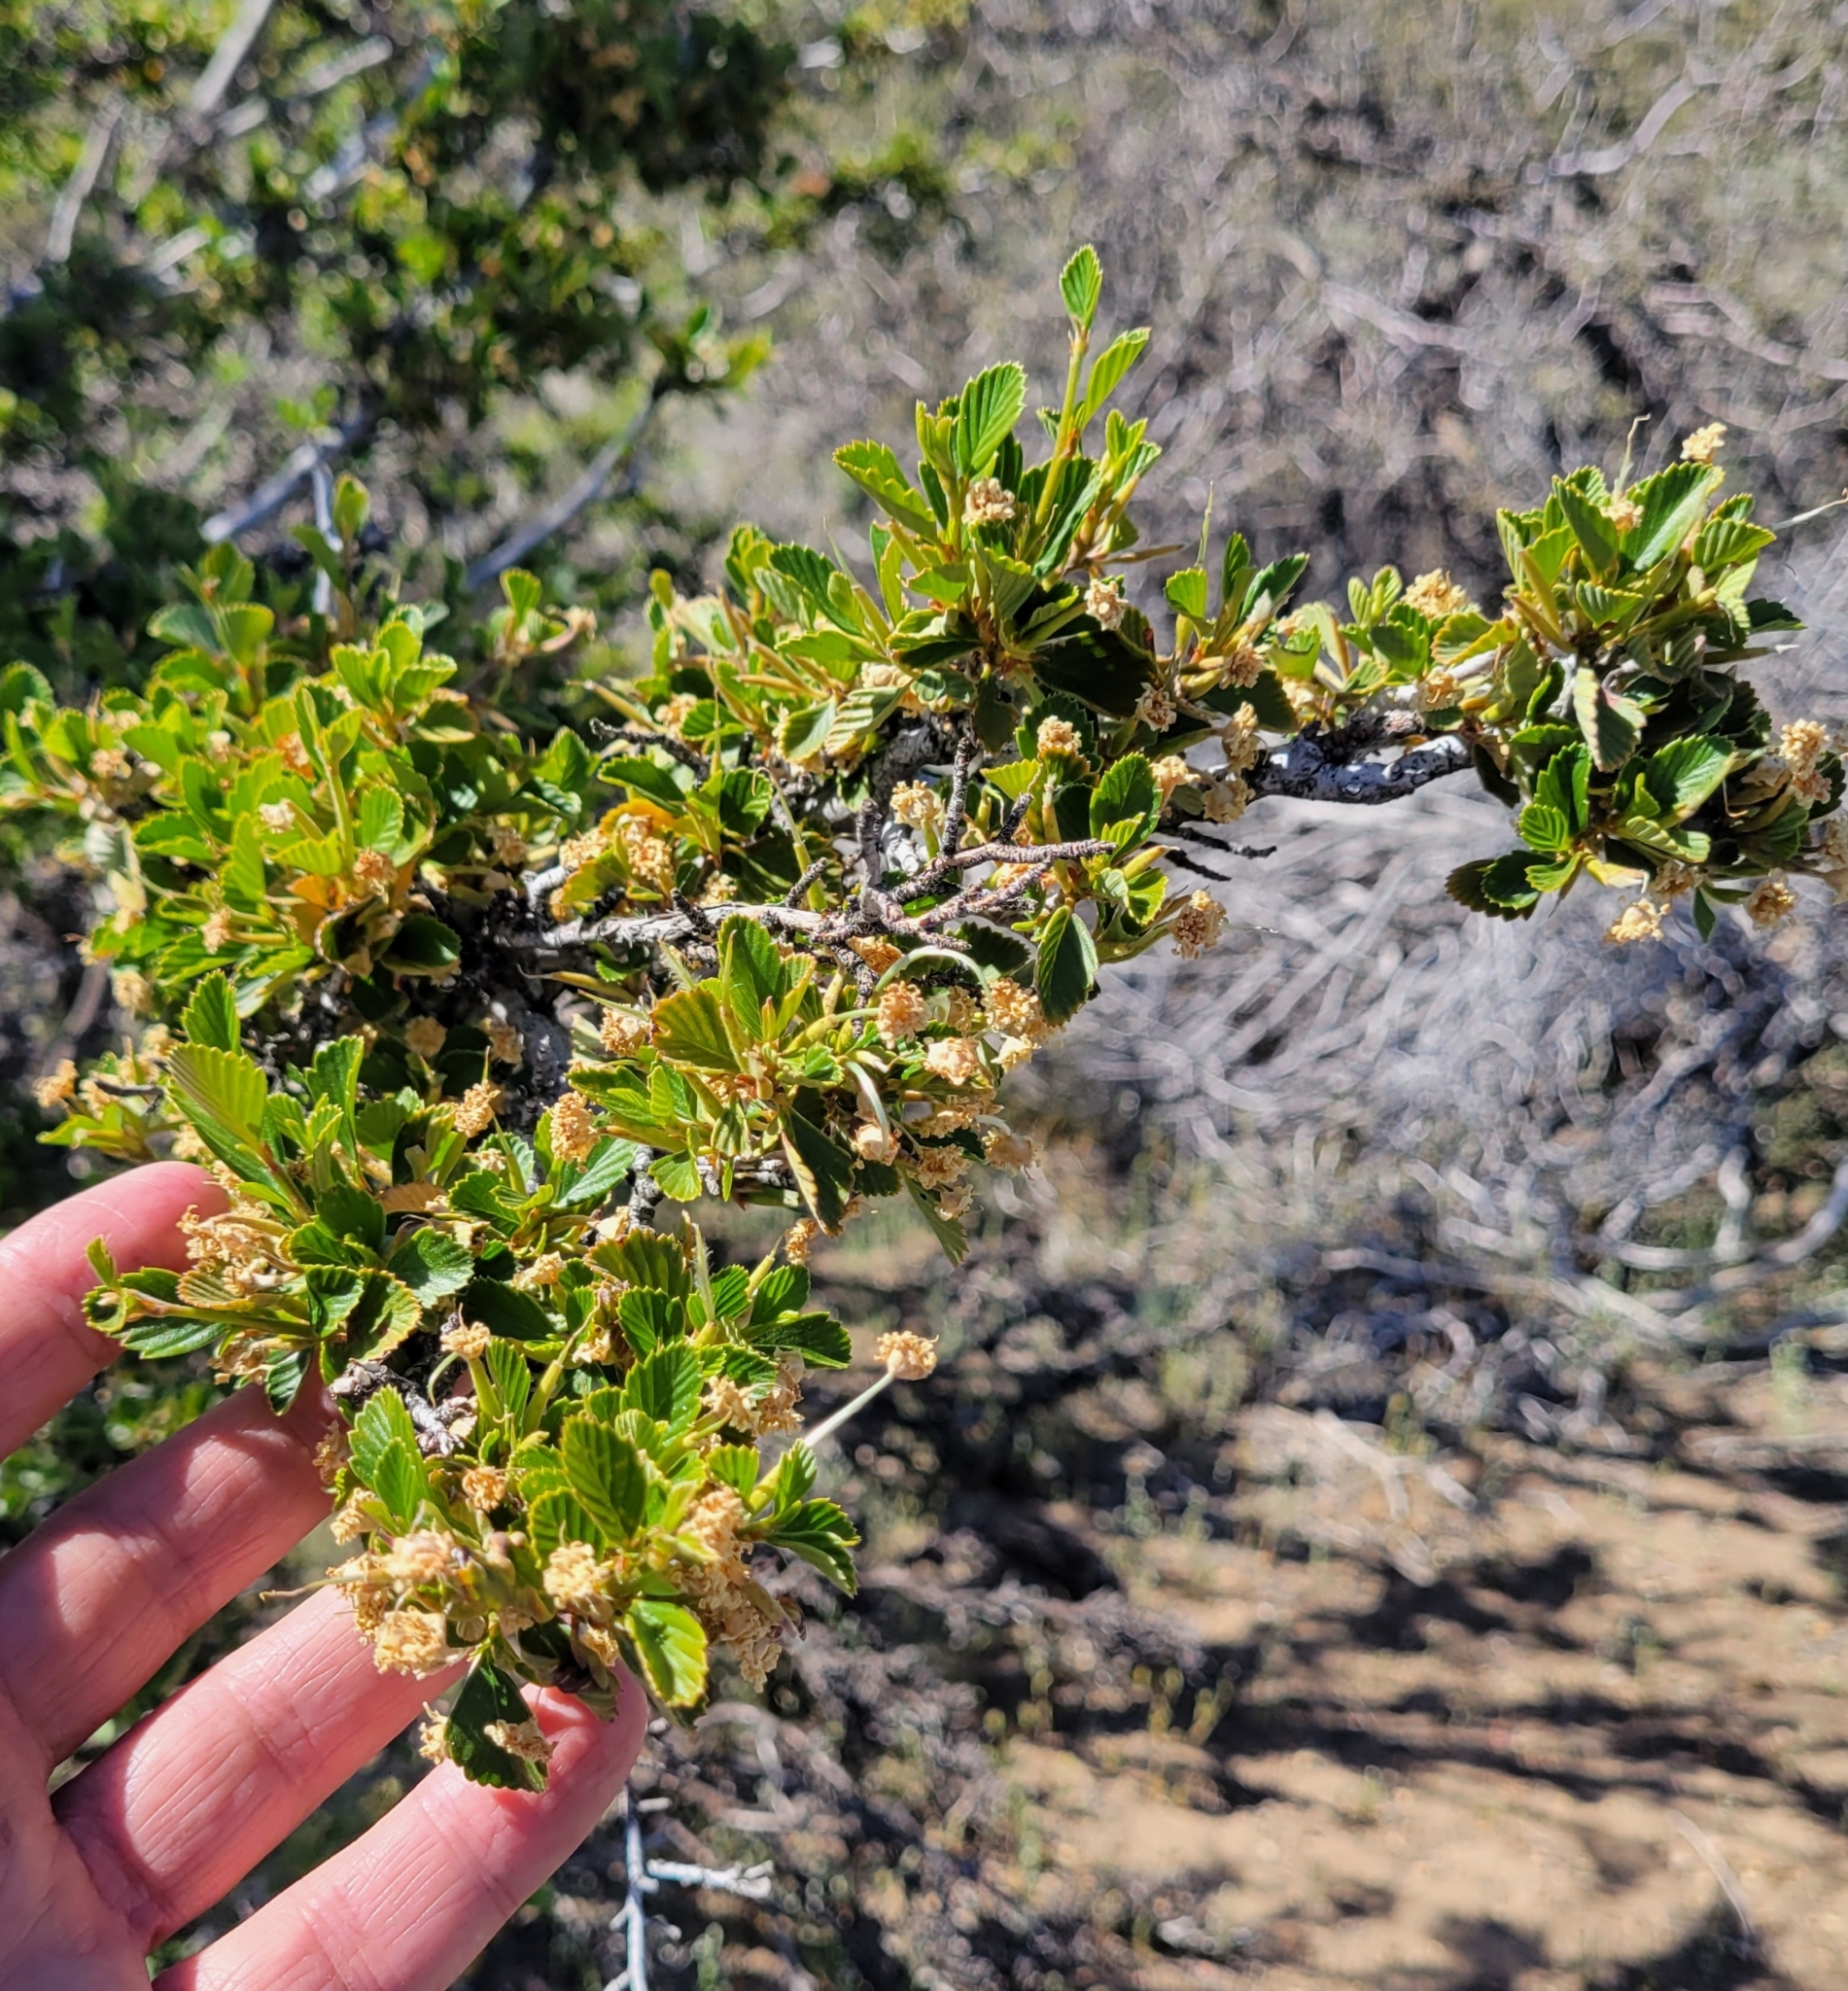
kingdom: Plantae
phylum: Tracheophyta
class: Magnoliopsida
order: Rosales
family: Rosaceae
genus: Cercocarpus
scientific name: Cercocarpus betuloides
